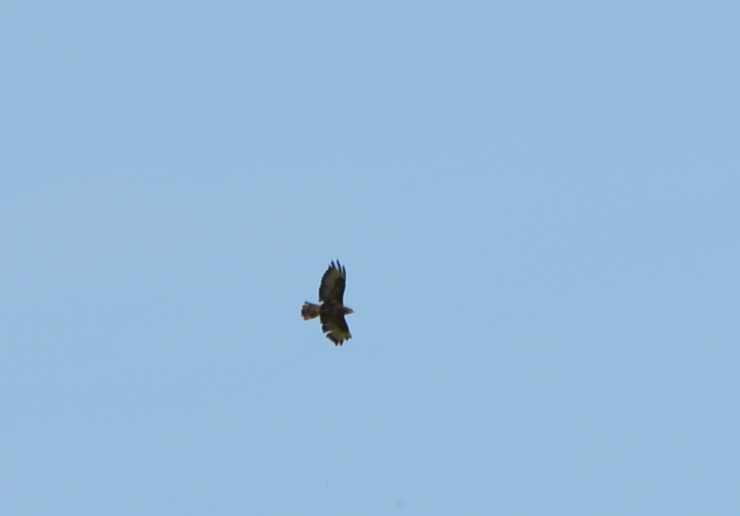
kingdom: Animalia
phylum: Chordata
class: Aves
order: Accipitriformes
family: Accipitridae
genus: Buteo
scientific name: Buteo buteo
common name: Common buzzard
